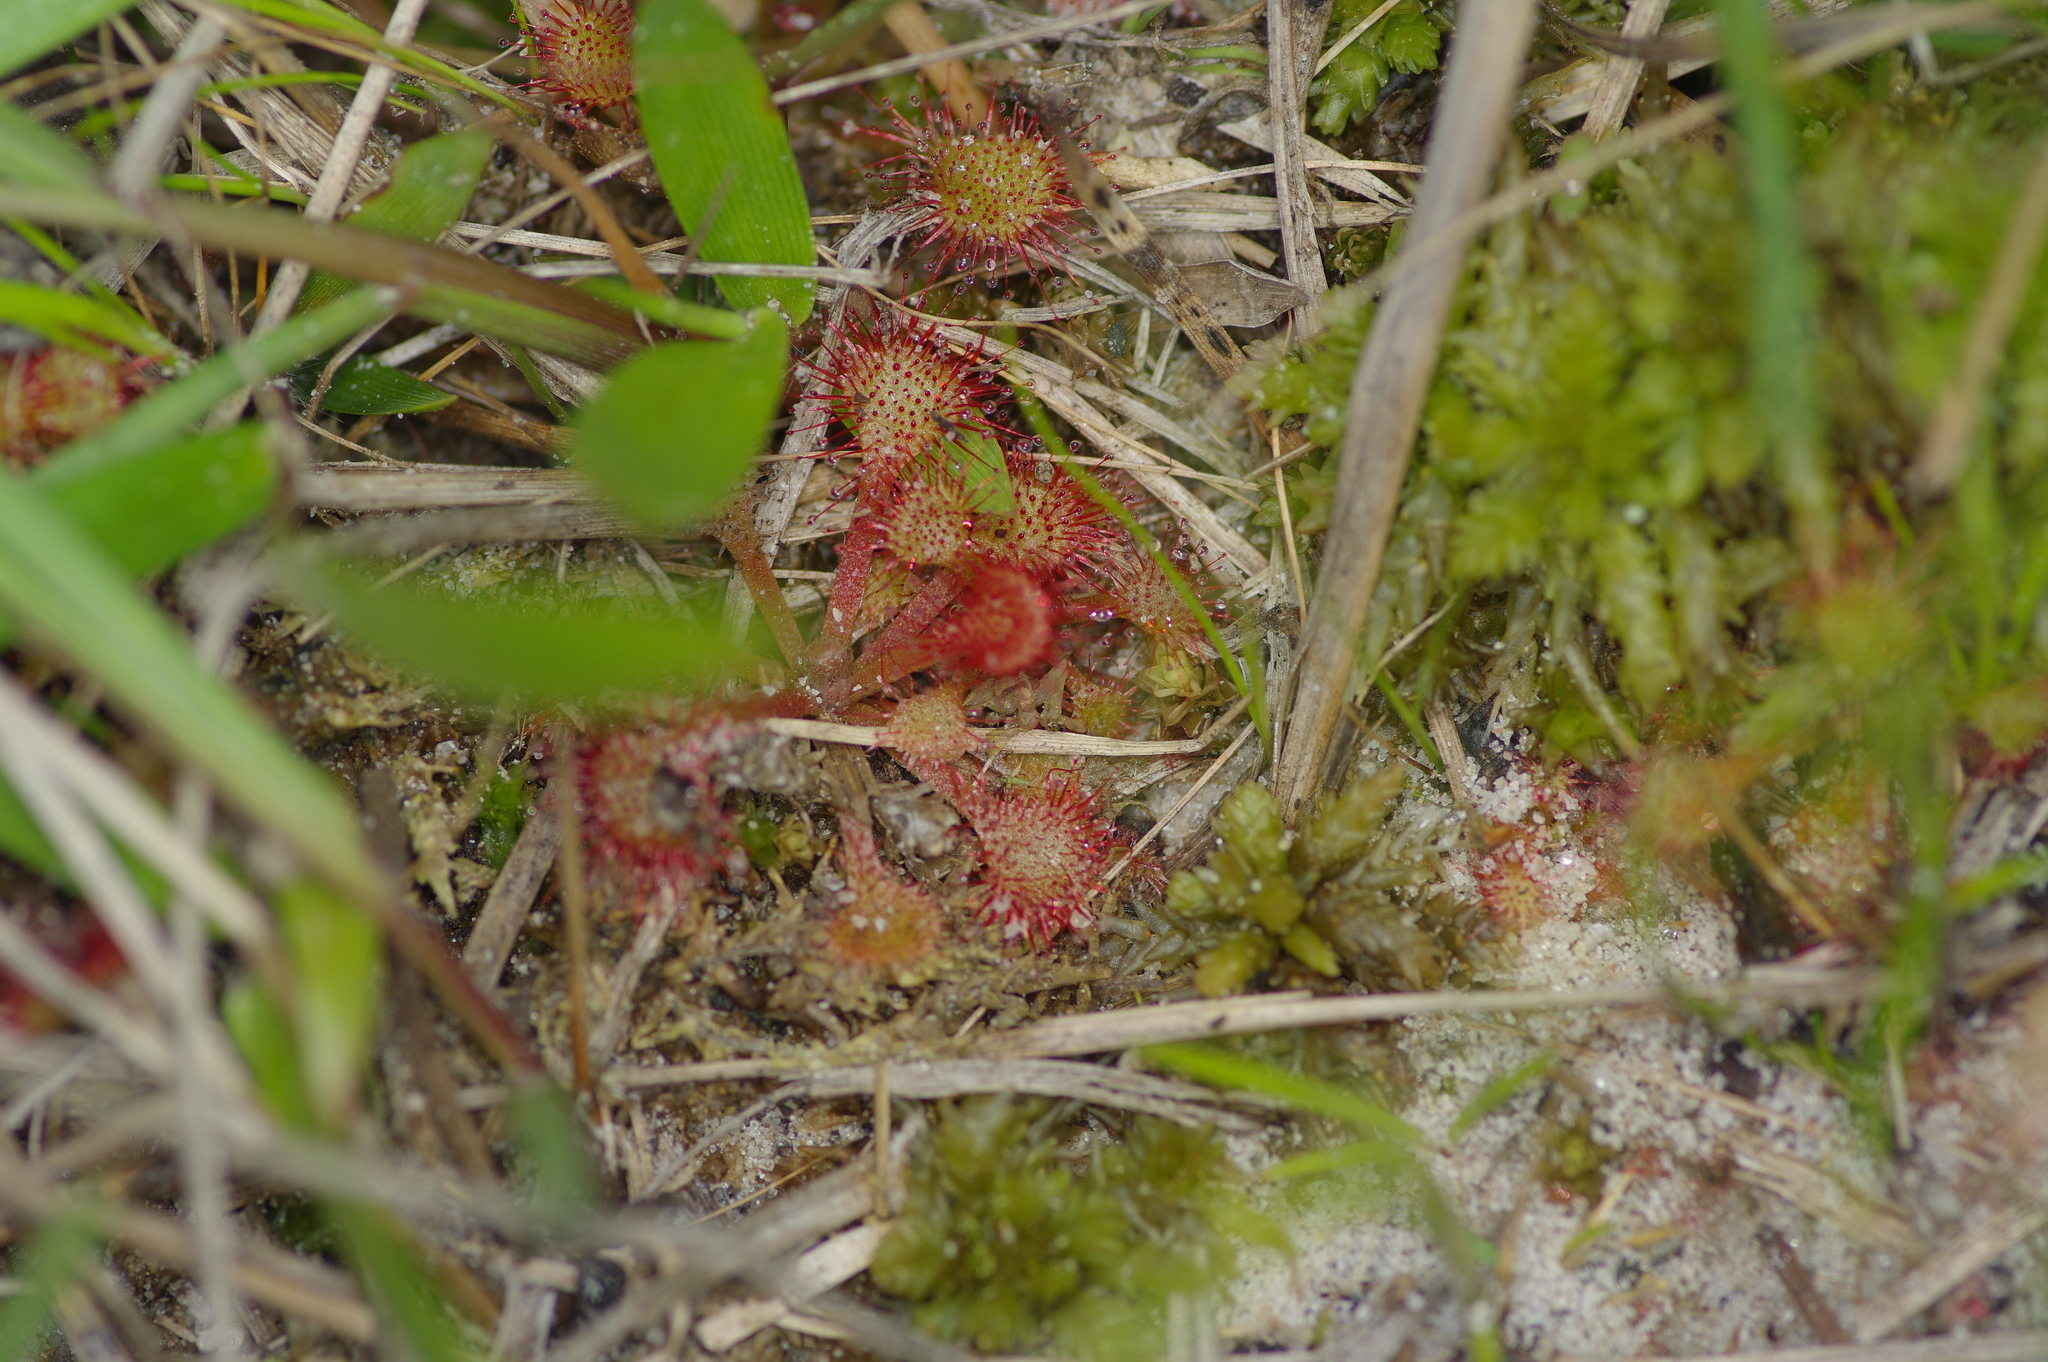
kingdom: Plantae
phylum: Tracheophyta
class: Magnoliopsida
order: Caryophyllales
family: Droseraceae
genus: Drosera
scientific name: Drosera capillaris
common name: Pink sundew
